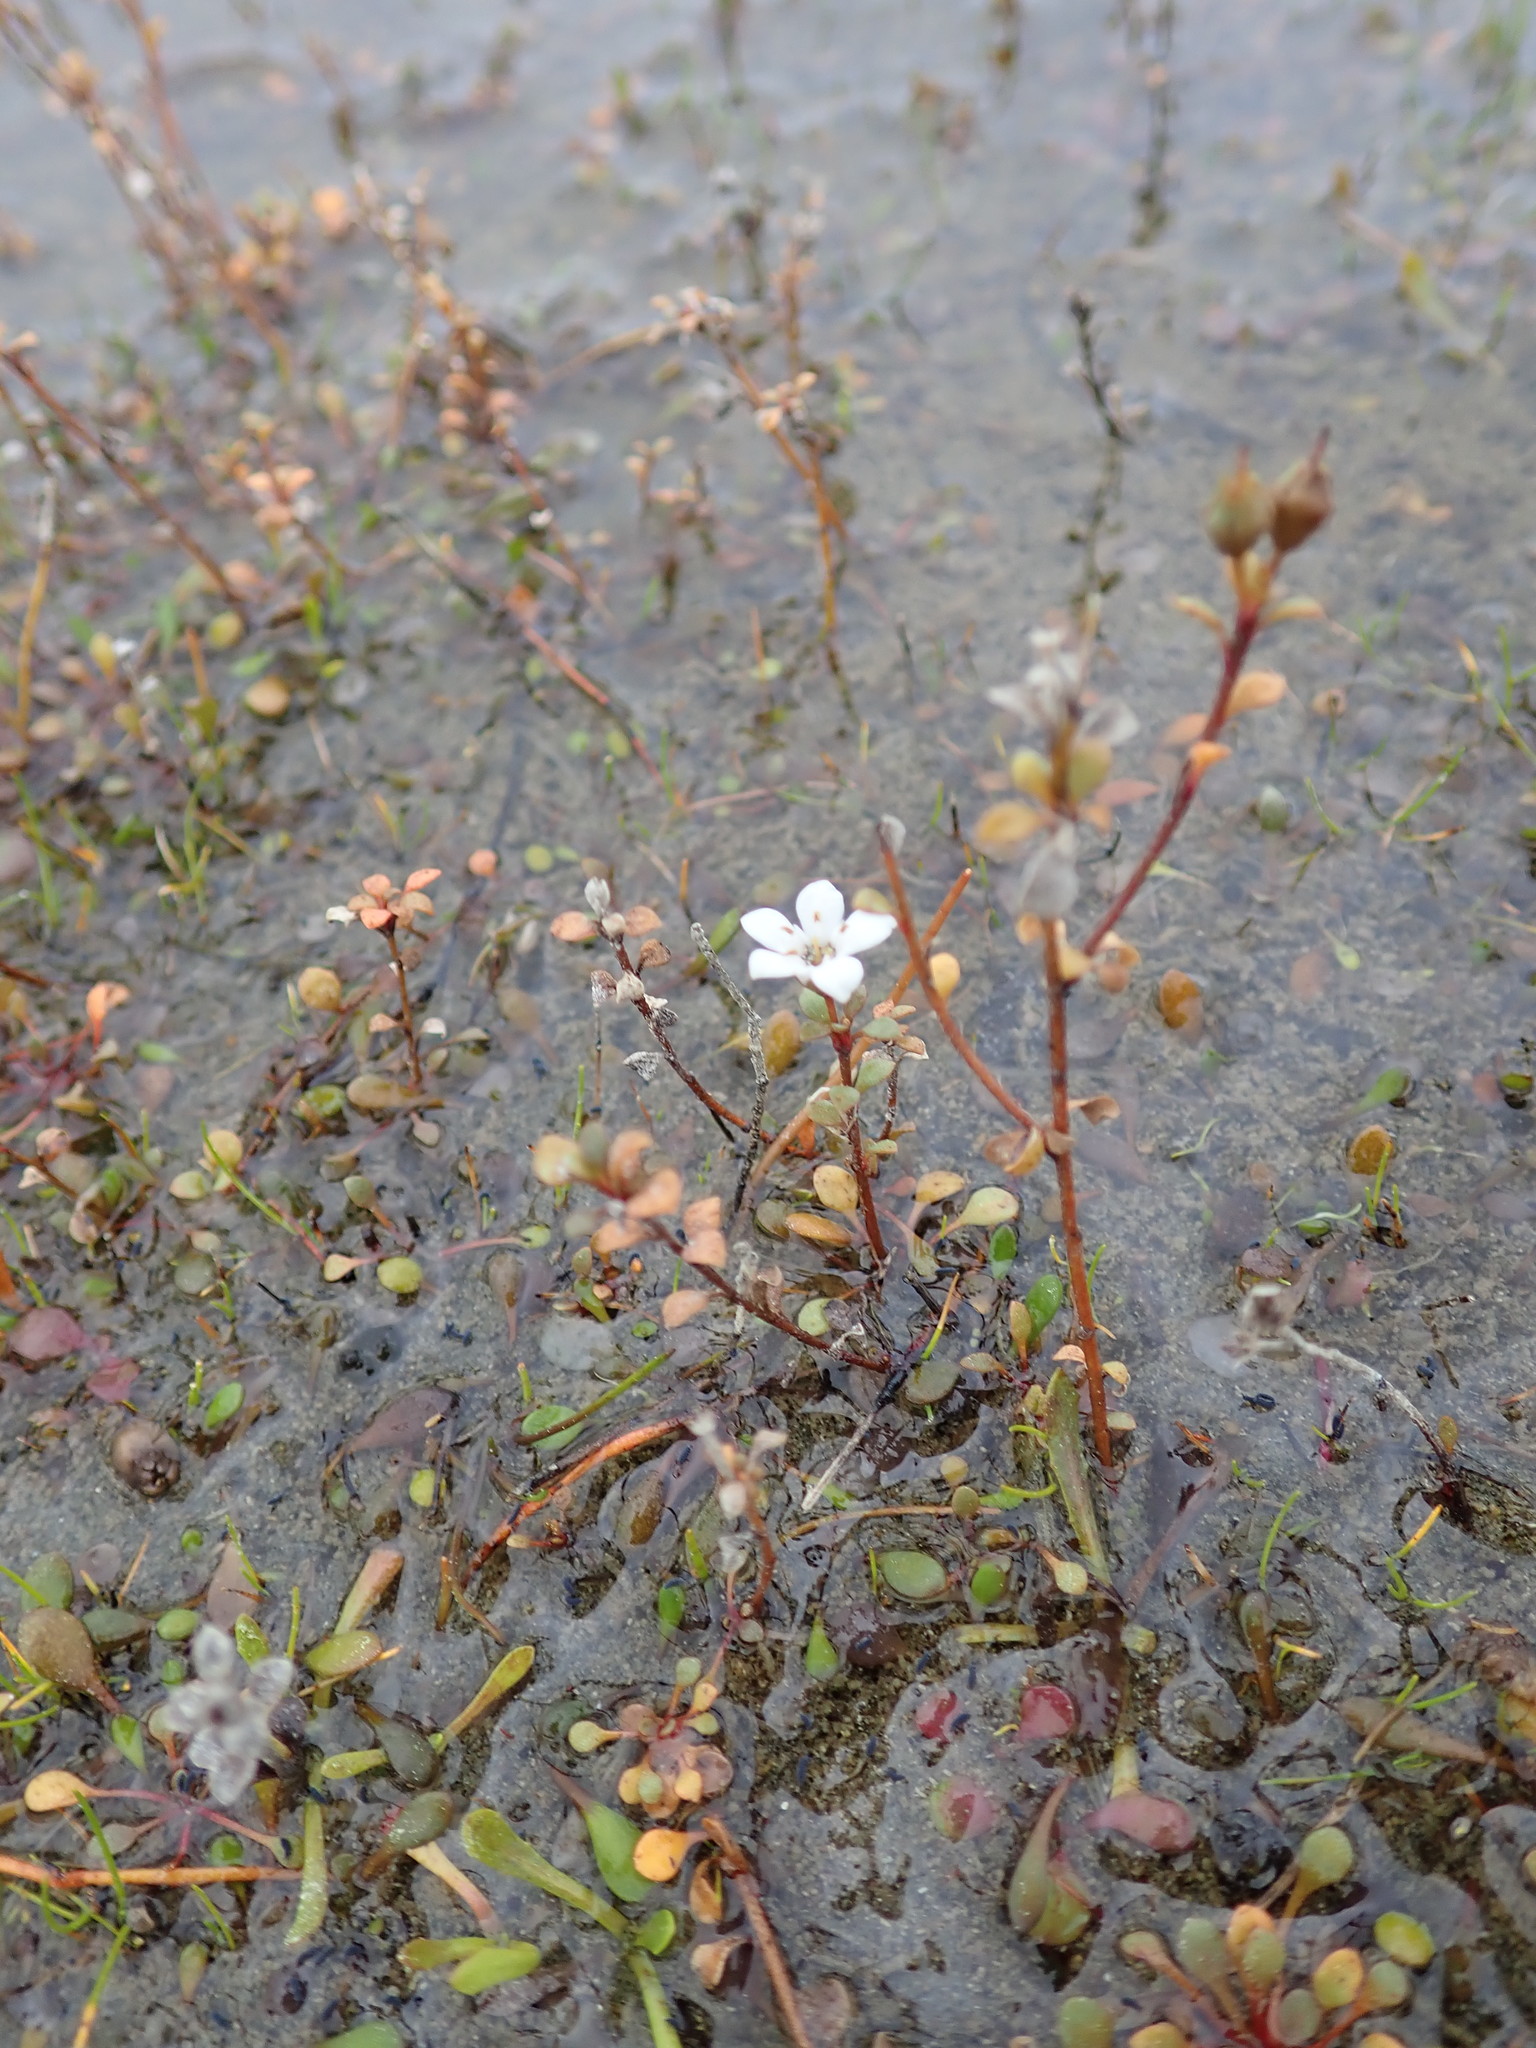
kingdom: Plantae
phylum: Tracheophyta
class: Magnoliopsida
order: Ericales
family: Primulaceae
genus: Samolus
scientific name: Samolus repens
